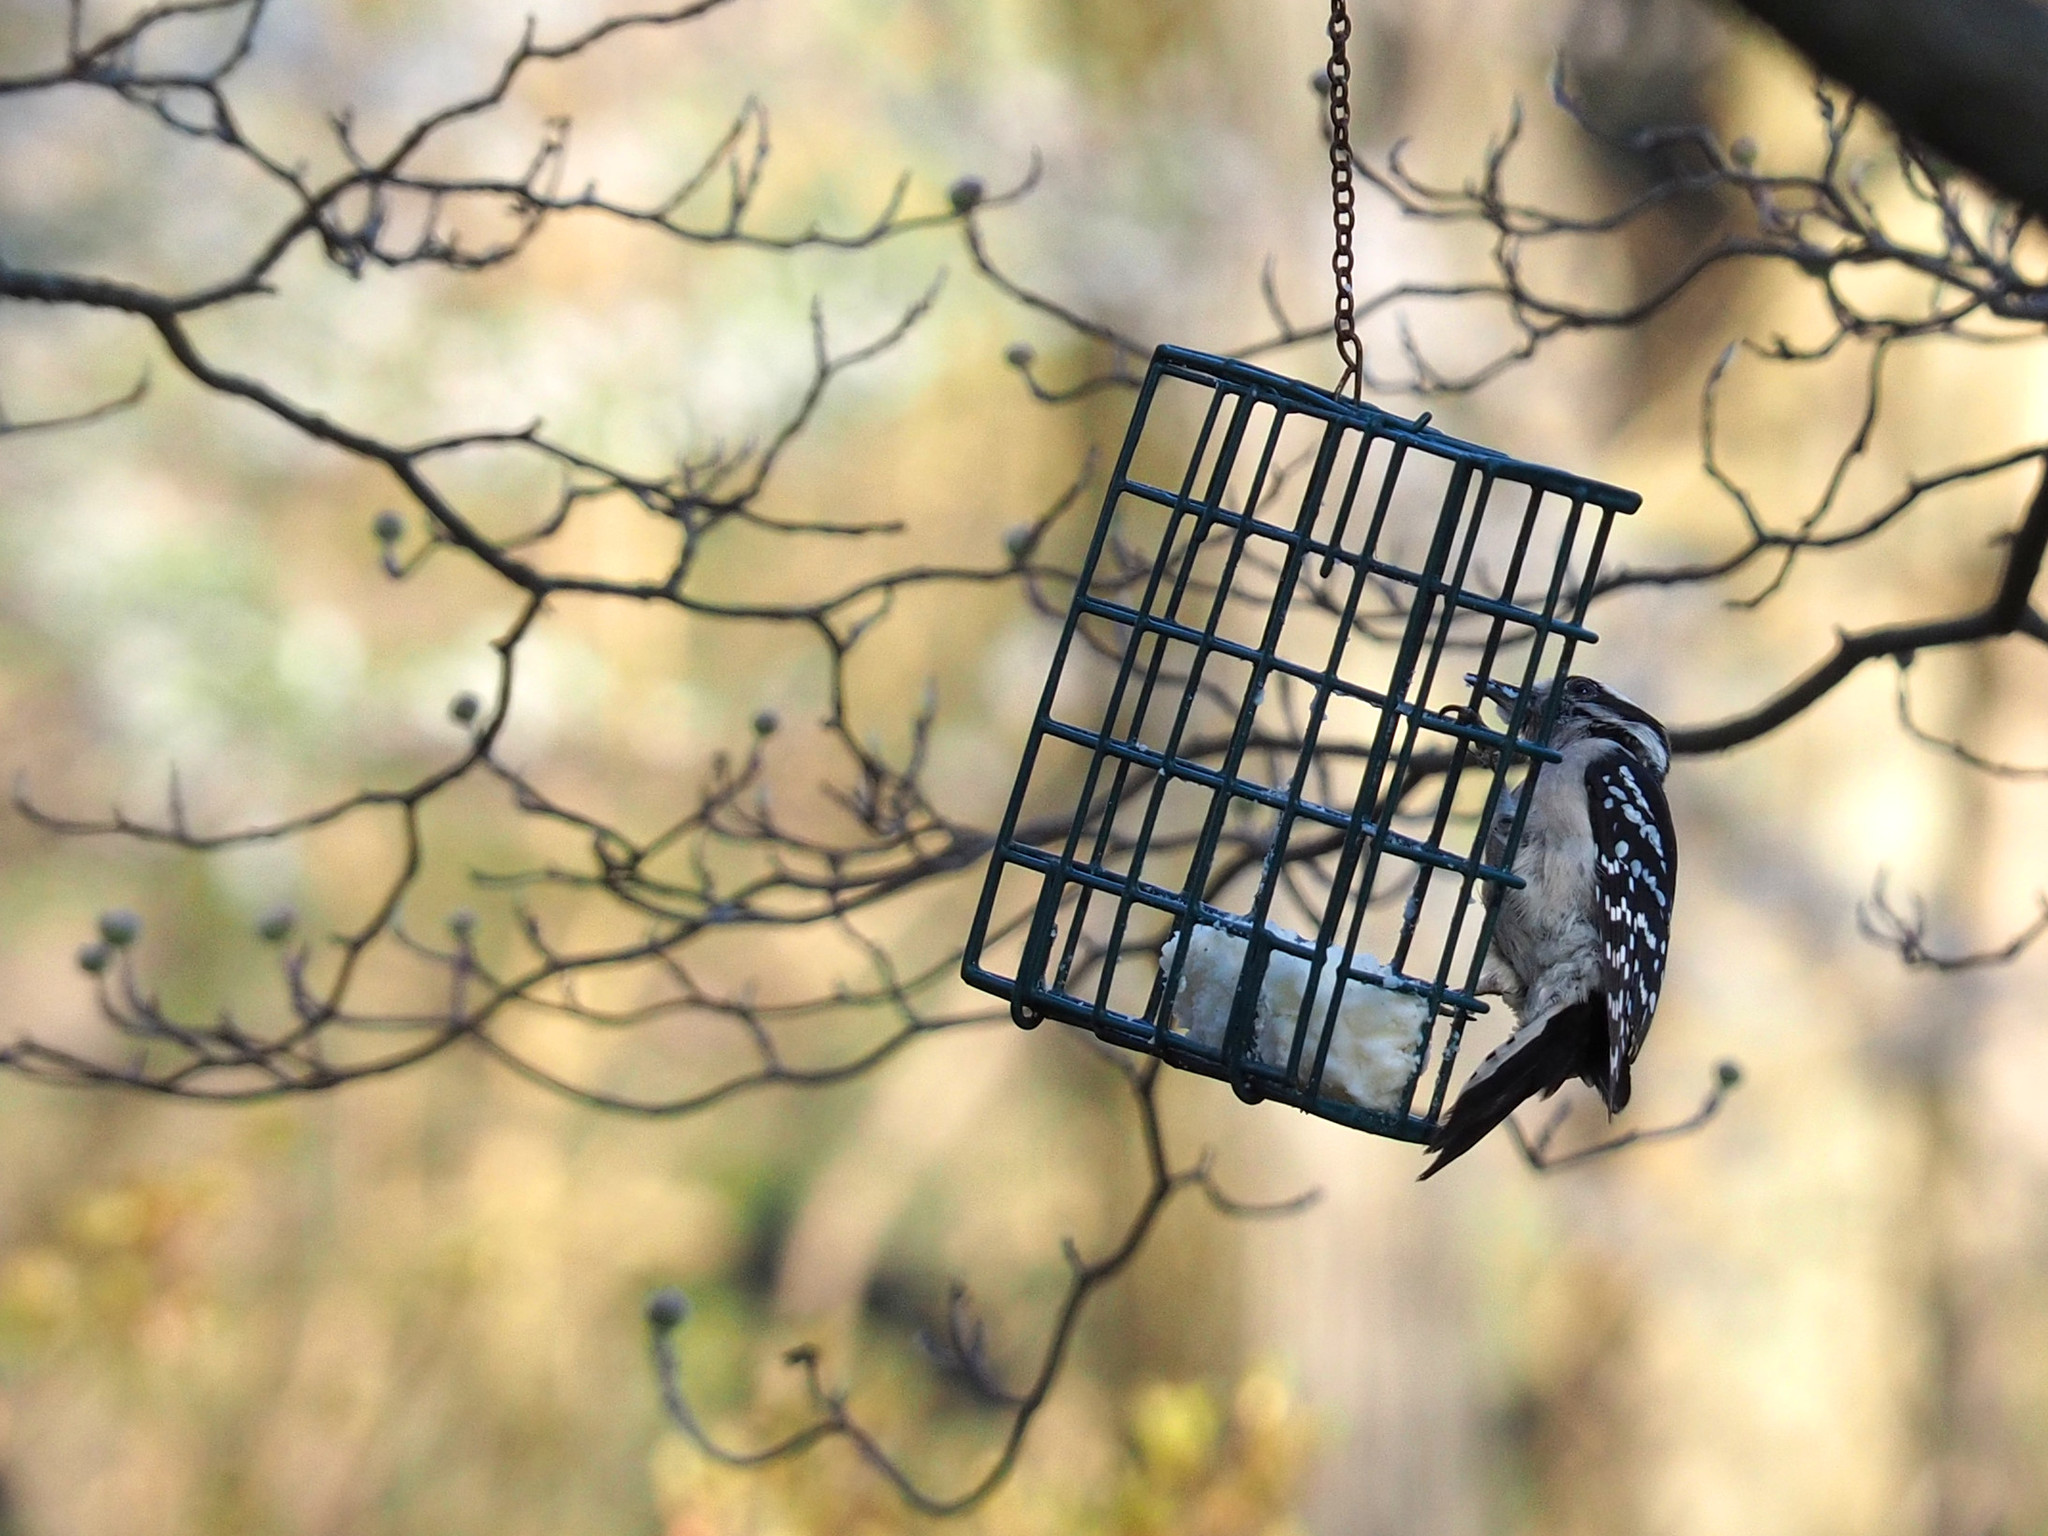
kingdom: Animalia
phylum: Chordata
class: Aves
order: Piciformes
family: Picidae
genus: Dryobates
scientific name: Dryobates pubescens
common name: Downy woodpecker
